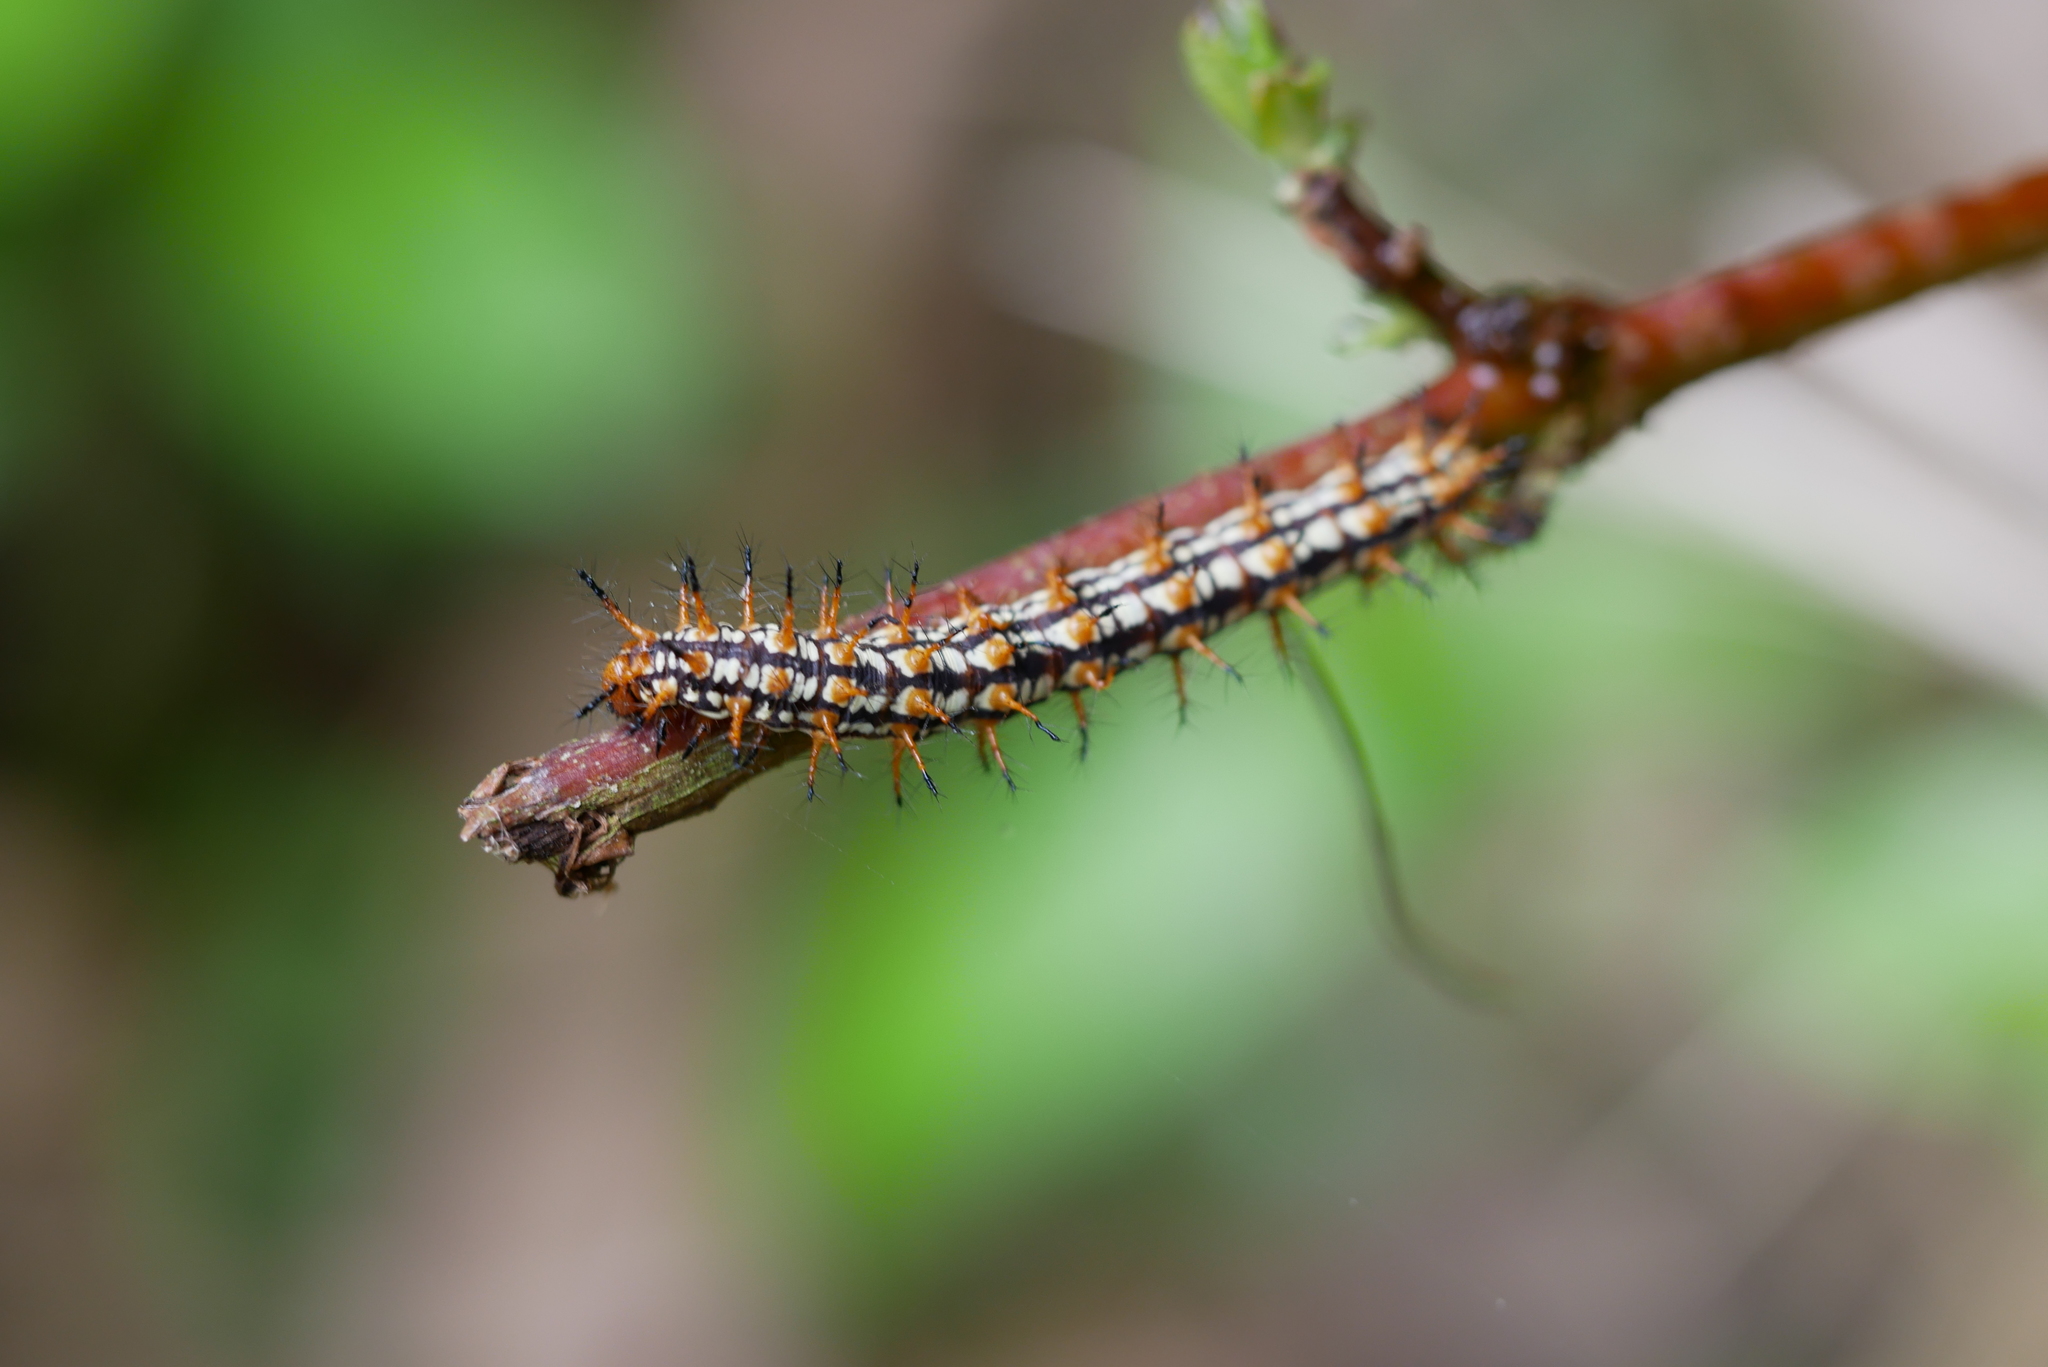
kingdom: Animalia
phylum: Arthropoda
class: Insecta
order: Lepidoptera
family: Nymphalidae
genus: Acraea
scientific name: Acraea Telchinia issoria
